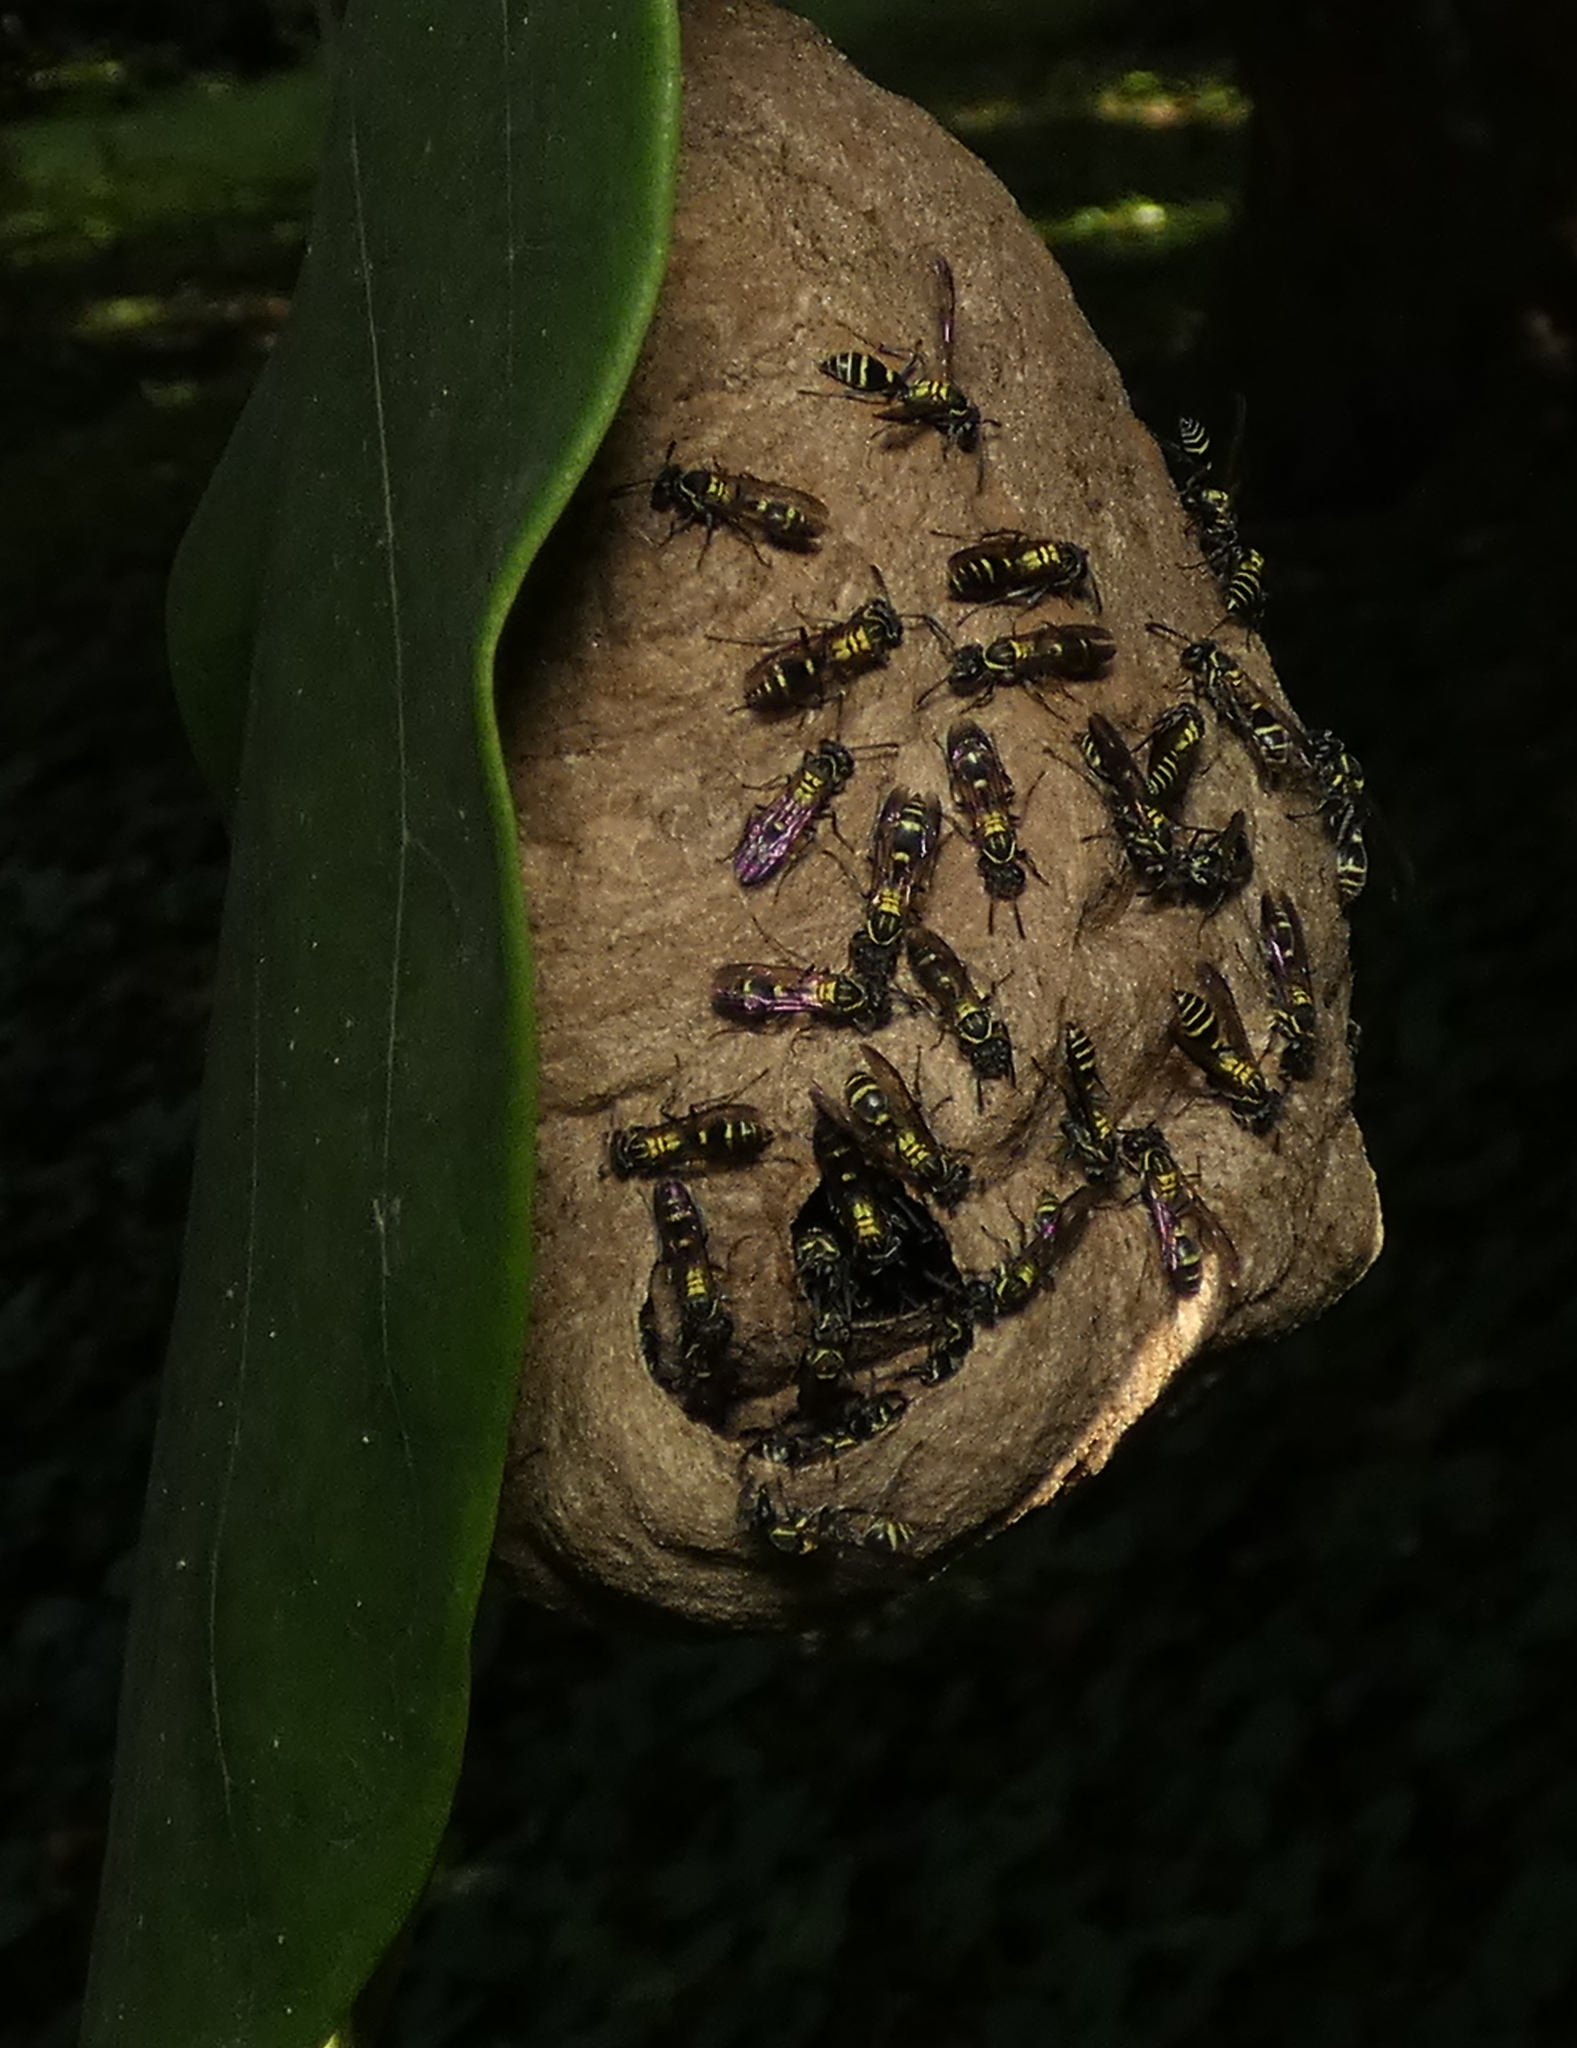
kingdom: Animalia
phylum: Arthropoda
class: Insecta
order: Hymenoptera
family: Eumenidae
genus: Polybia
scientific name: Polybia occidentalis
